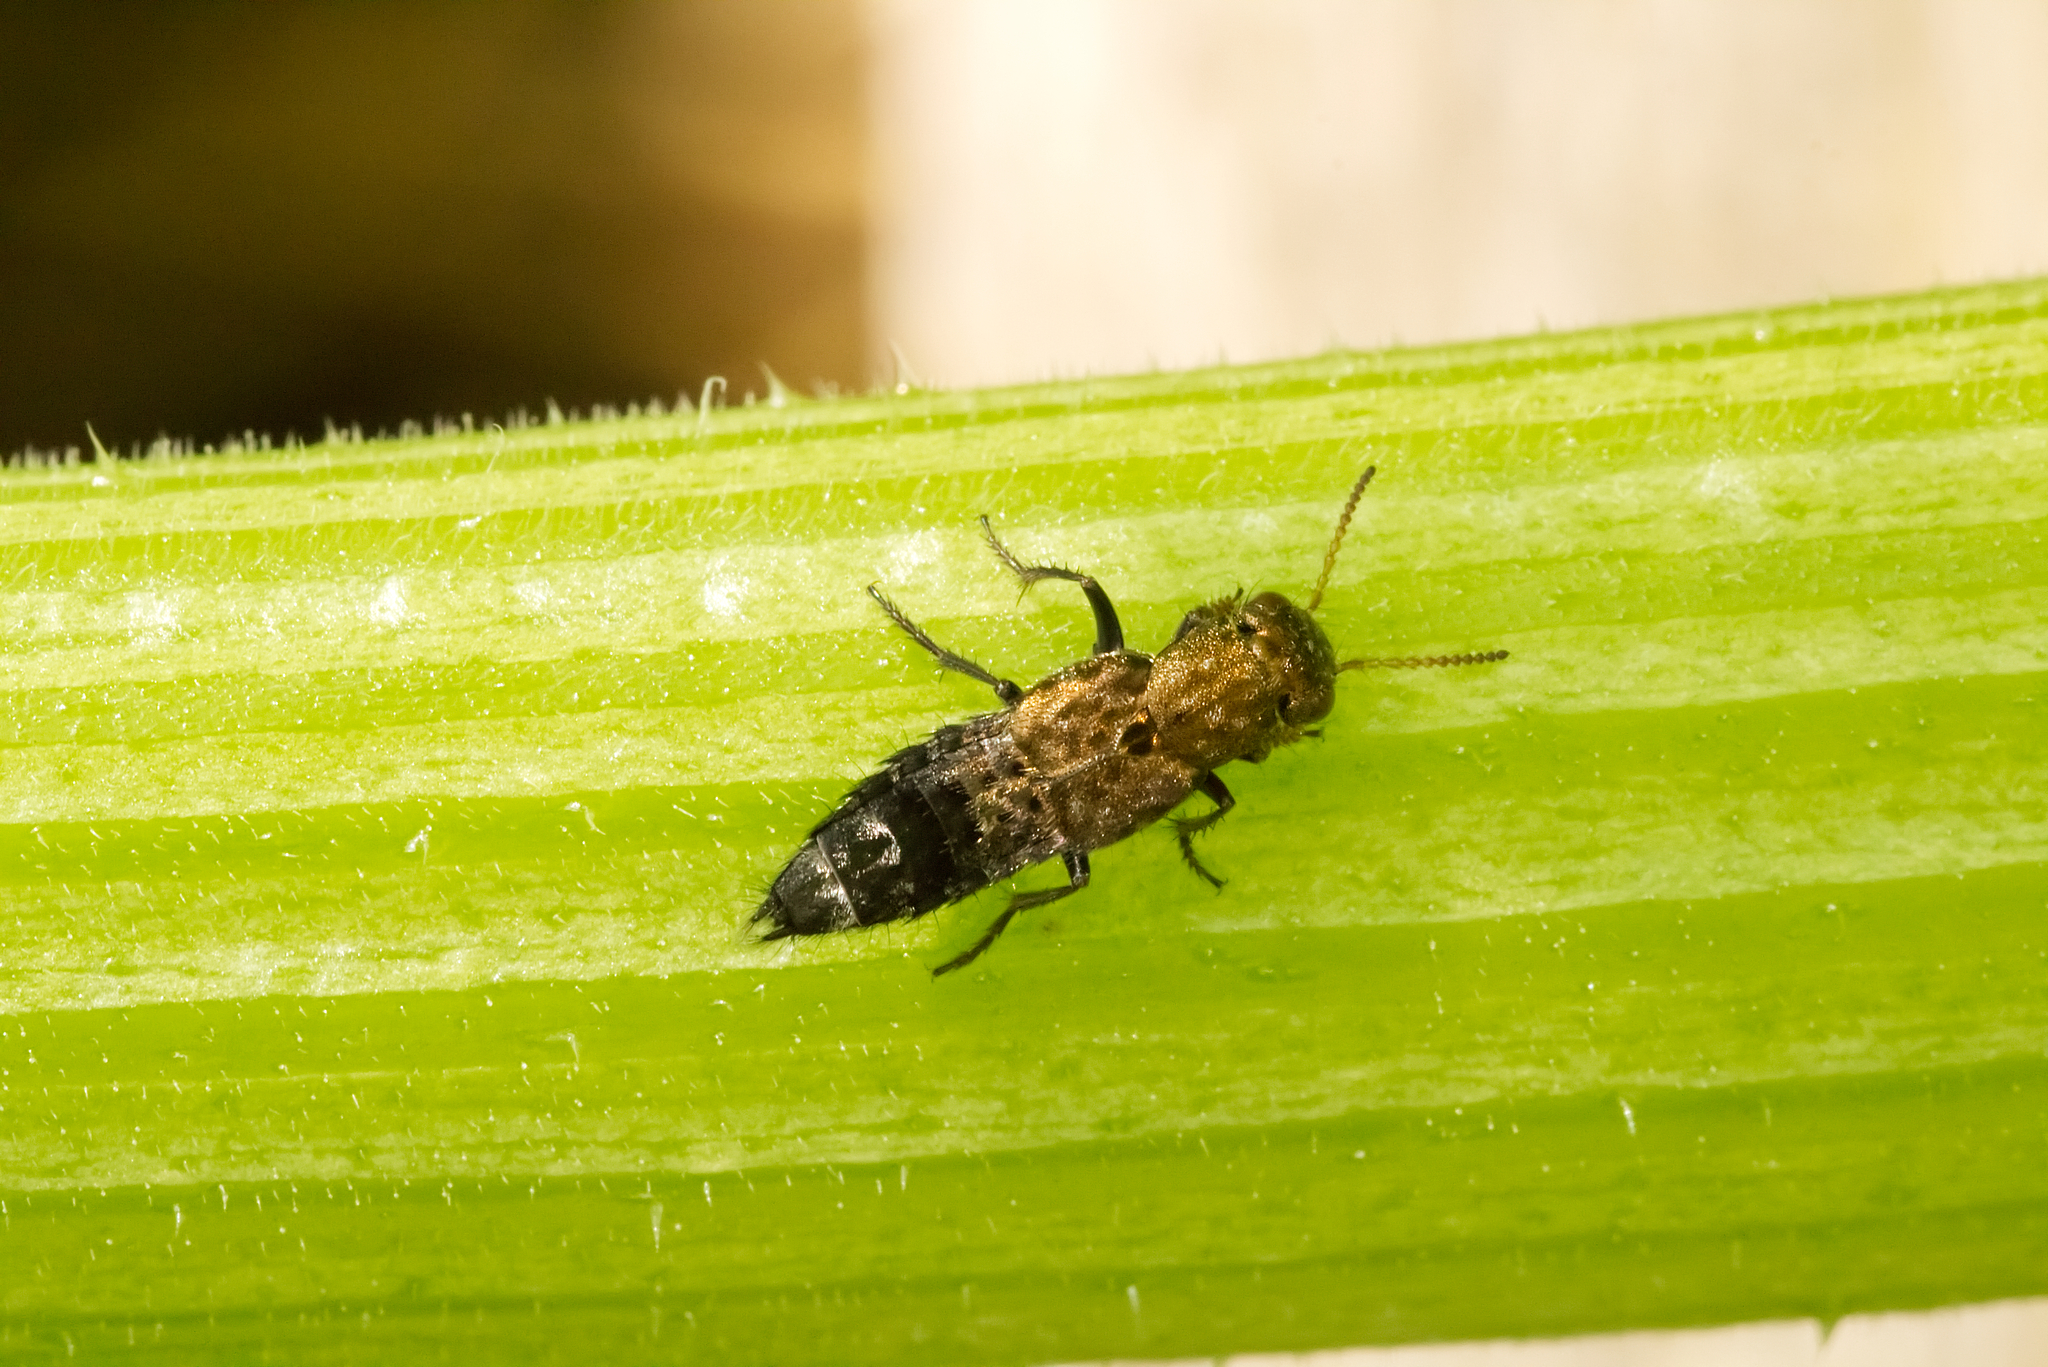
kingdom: Animalia
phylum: Arthropoda
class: Insecta
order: Coleoptera
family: Staphylinidae
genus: Ontholestes
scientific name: Ontholestes murinus
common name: Staph beetle
